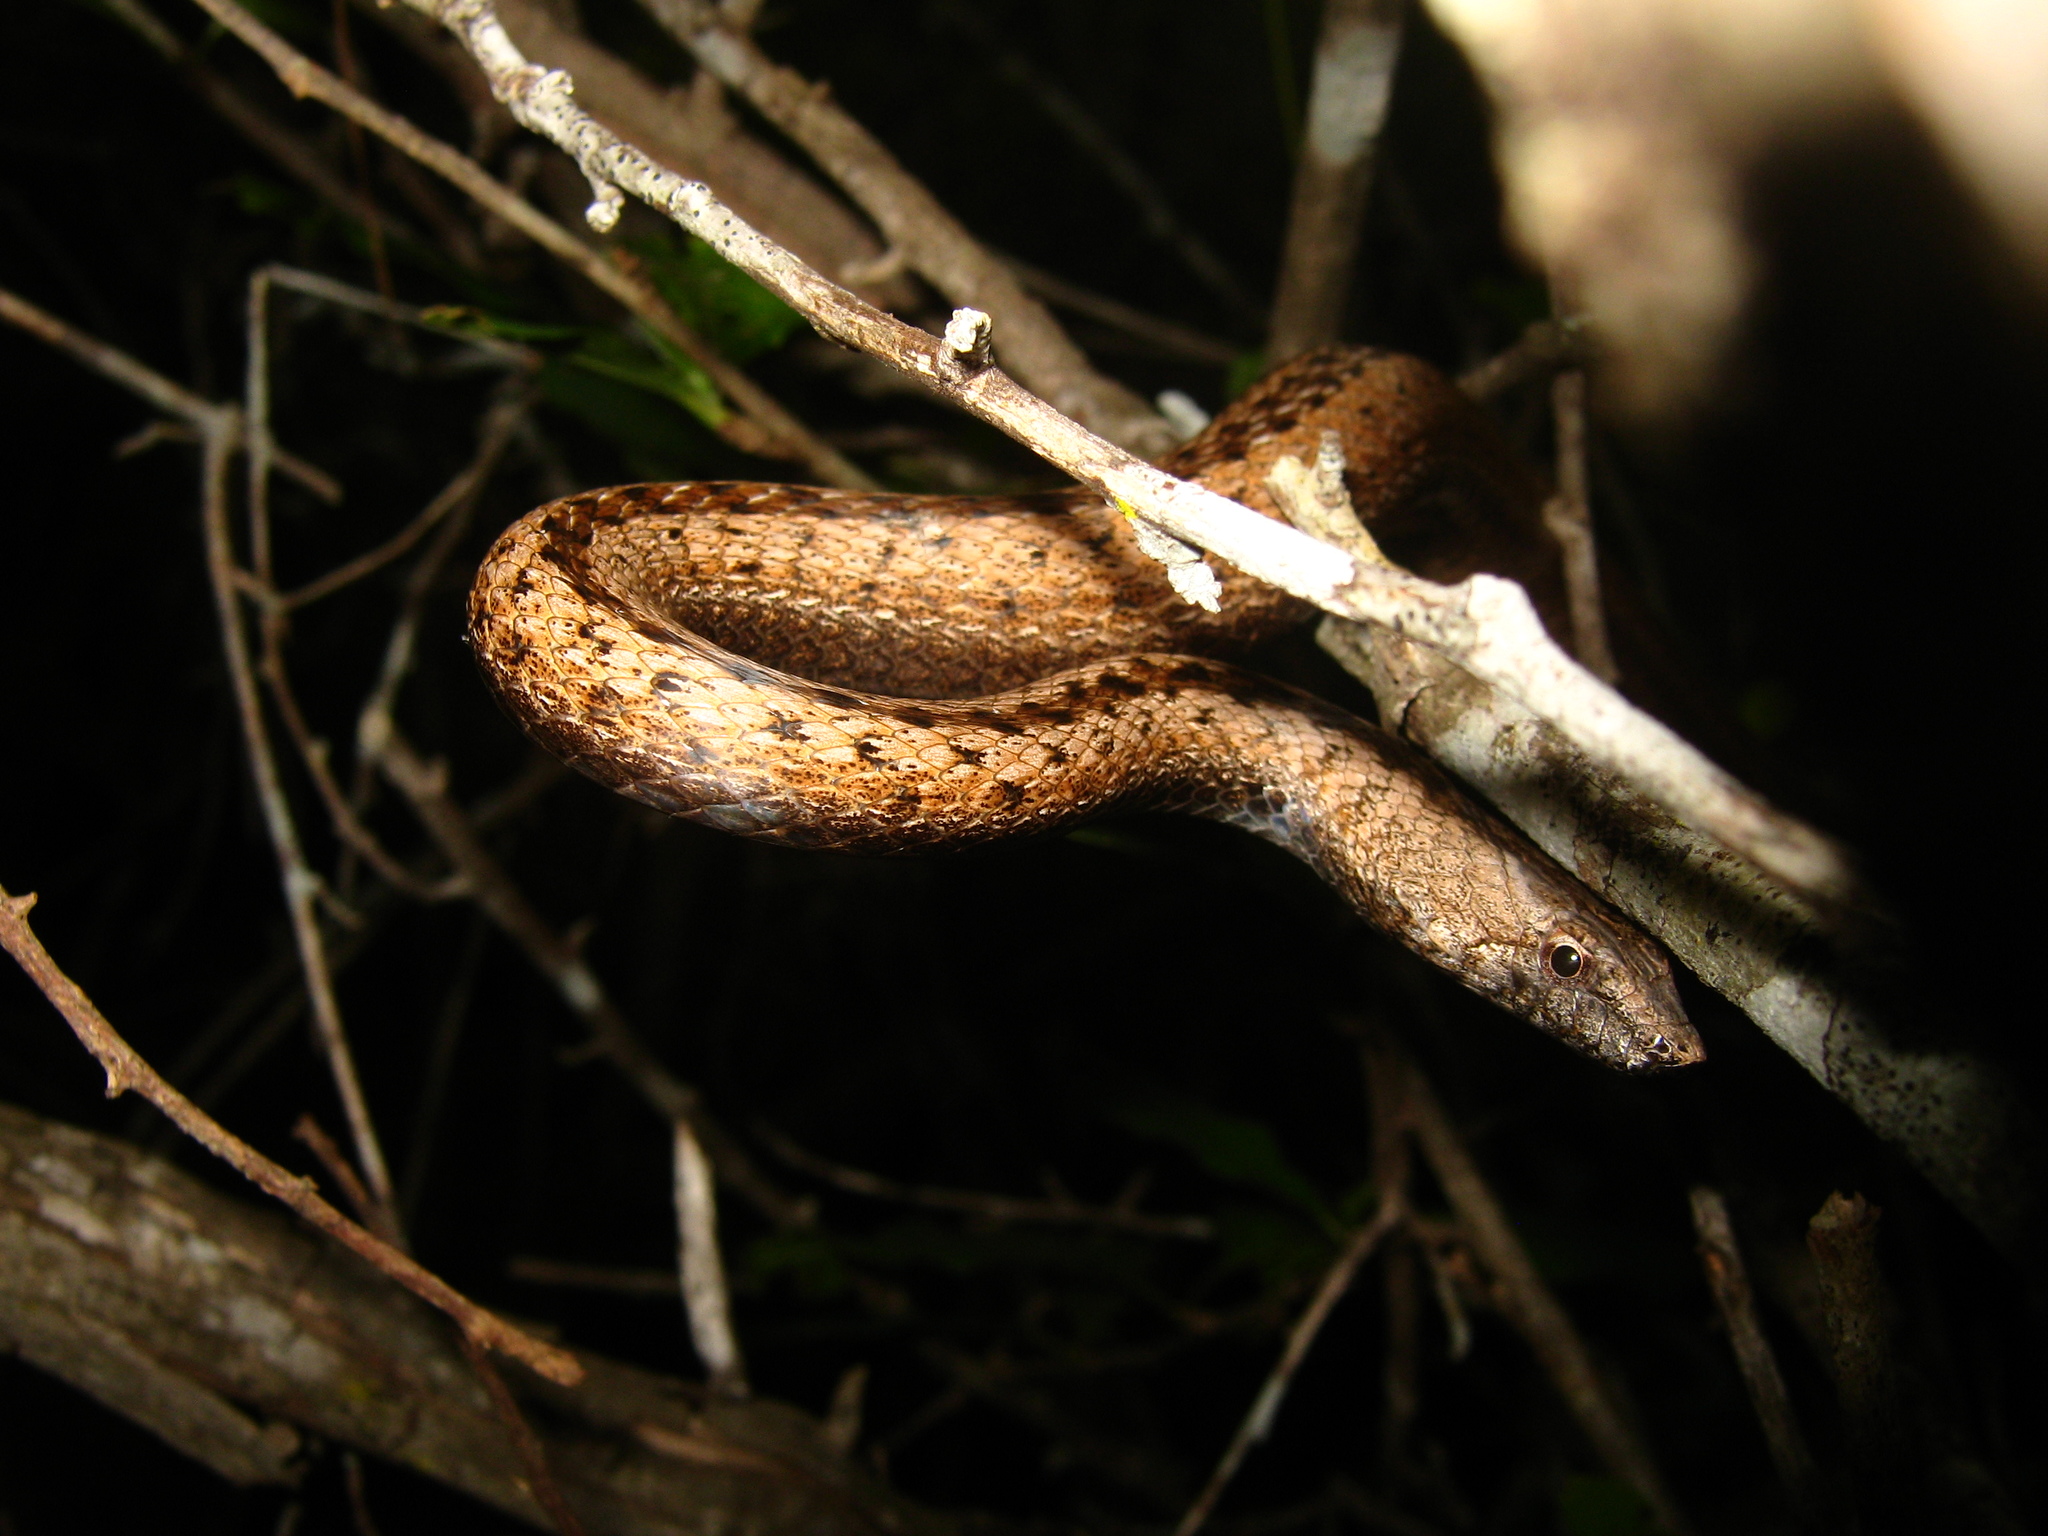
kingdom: Animalia
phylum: Chordata
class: Squamata
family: Colubridae
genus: Manolepis
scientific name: Manolepis putnami
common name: Ridgehead snake
